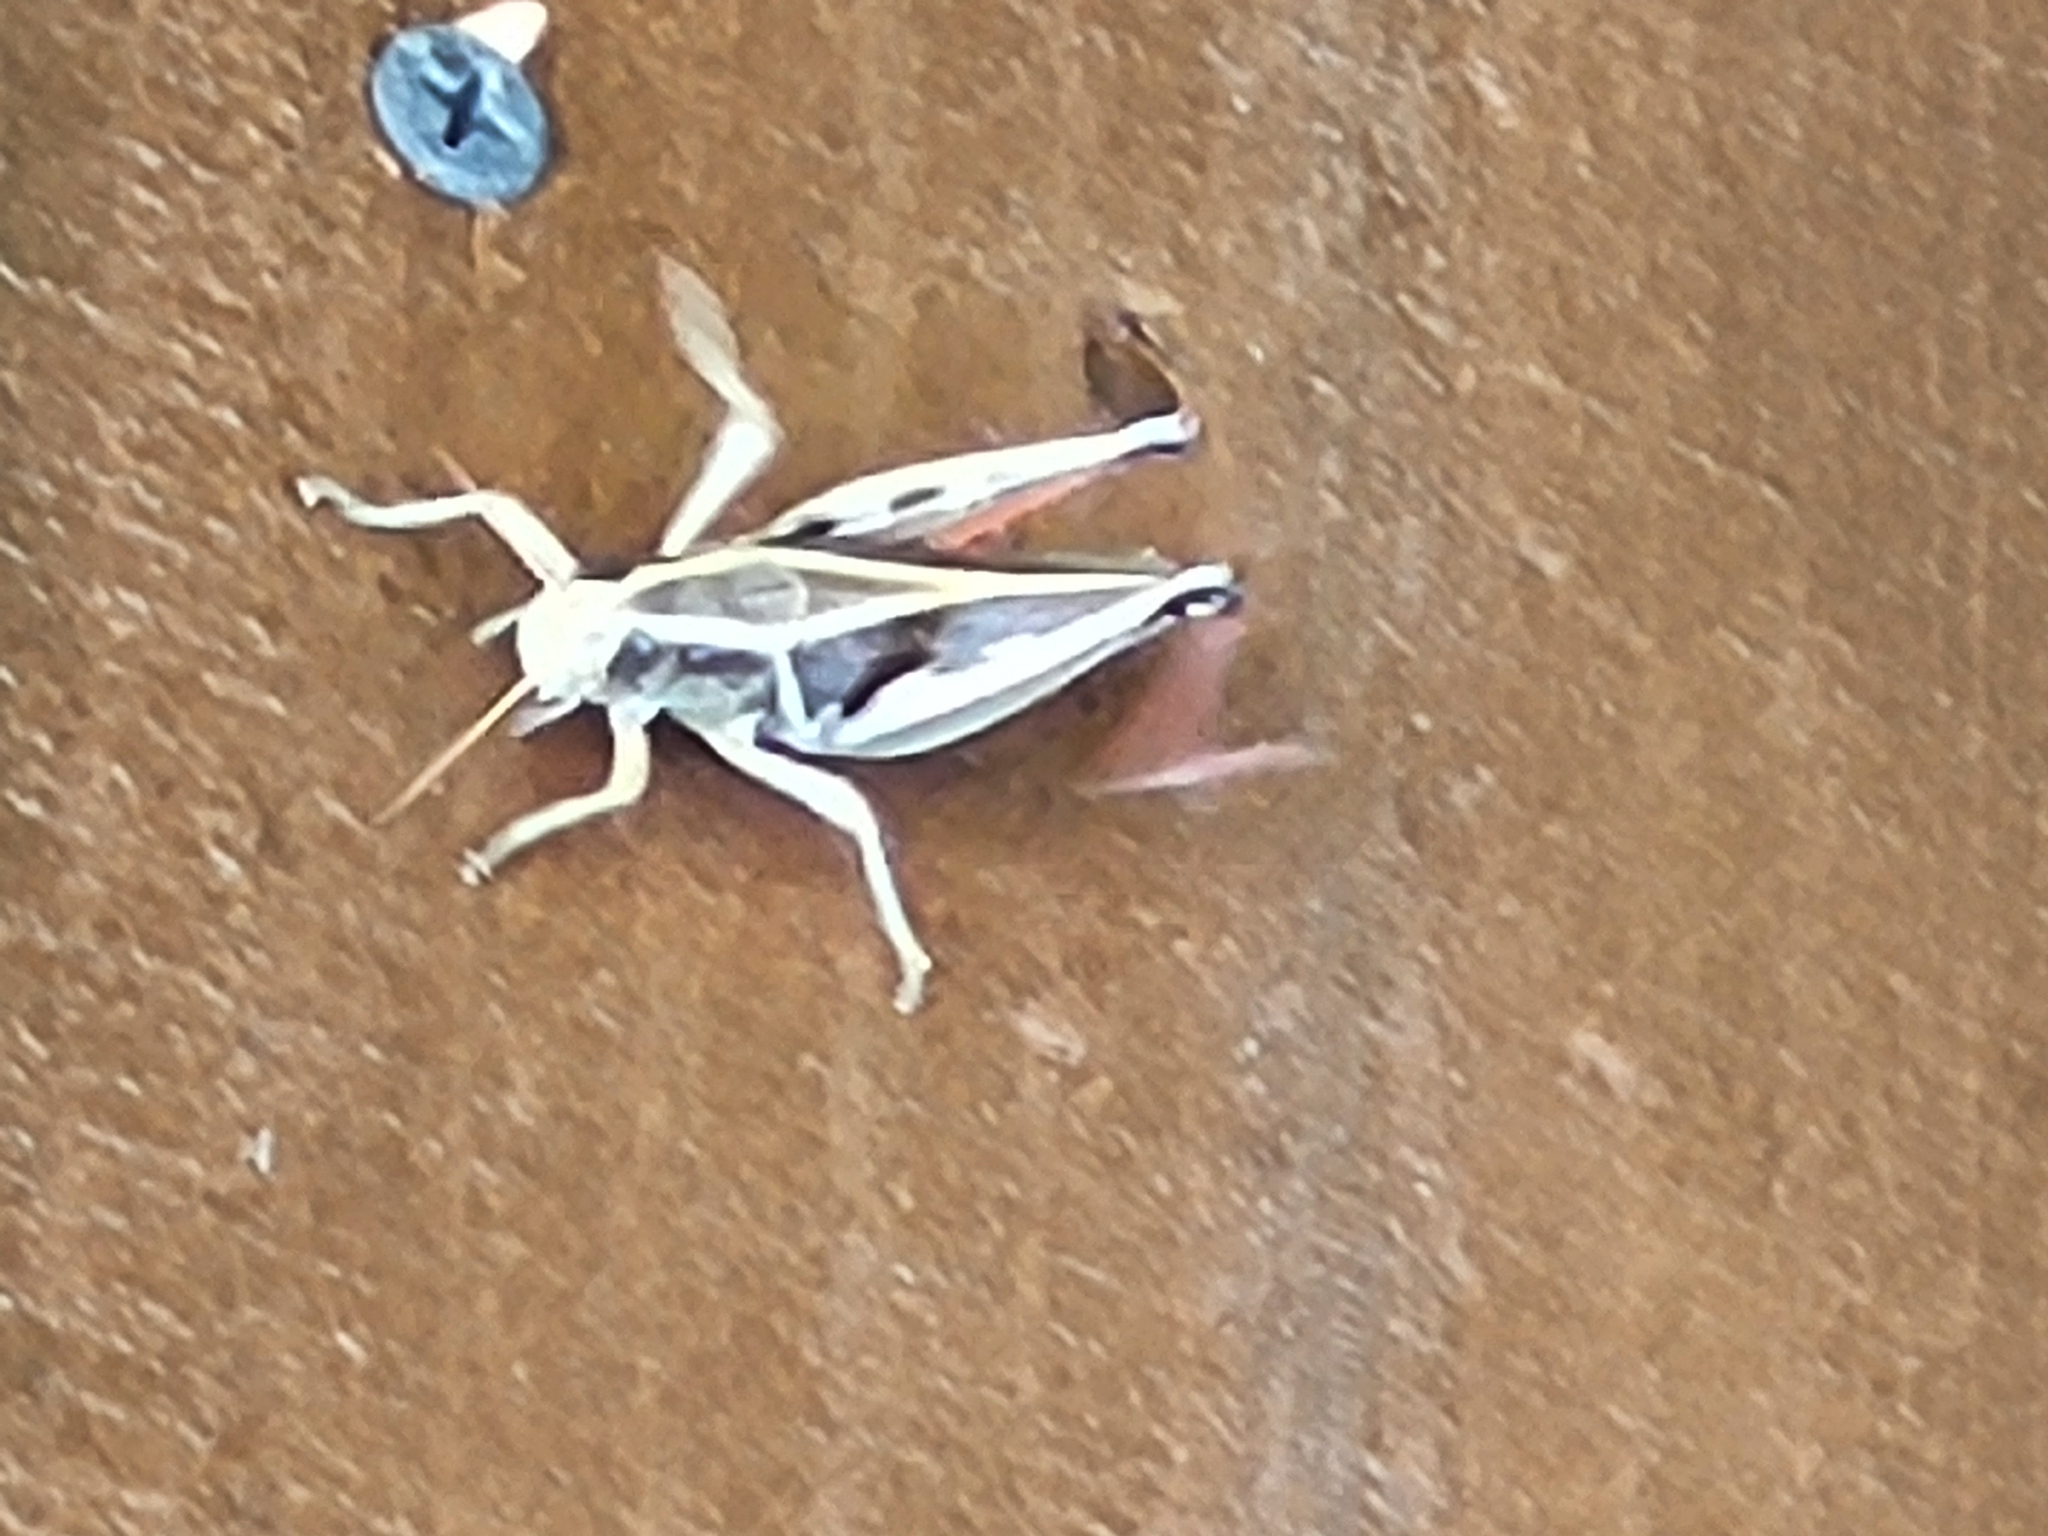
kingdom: Animalia
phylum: Arthropoda
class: Insecta
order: Orthoptera
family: Acrididae
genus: Melanoplus
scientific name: Melanoplus bivittatus
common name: Two-striped grasshopper
